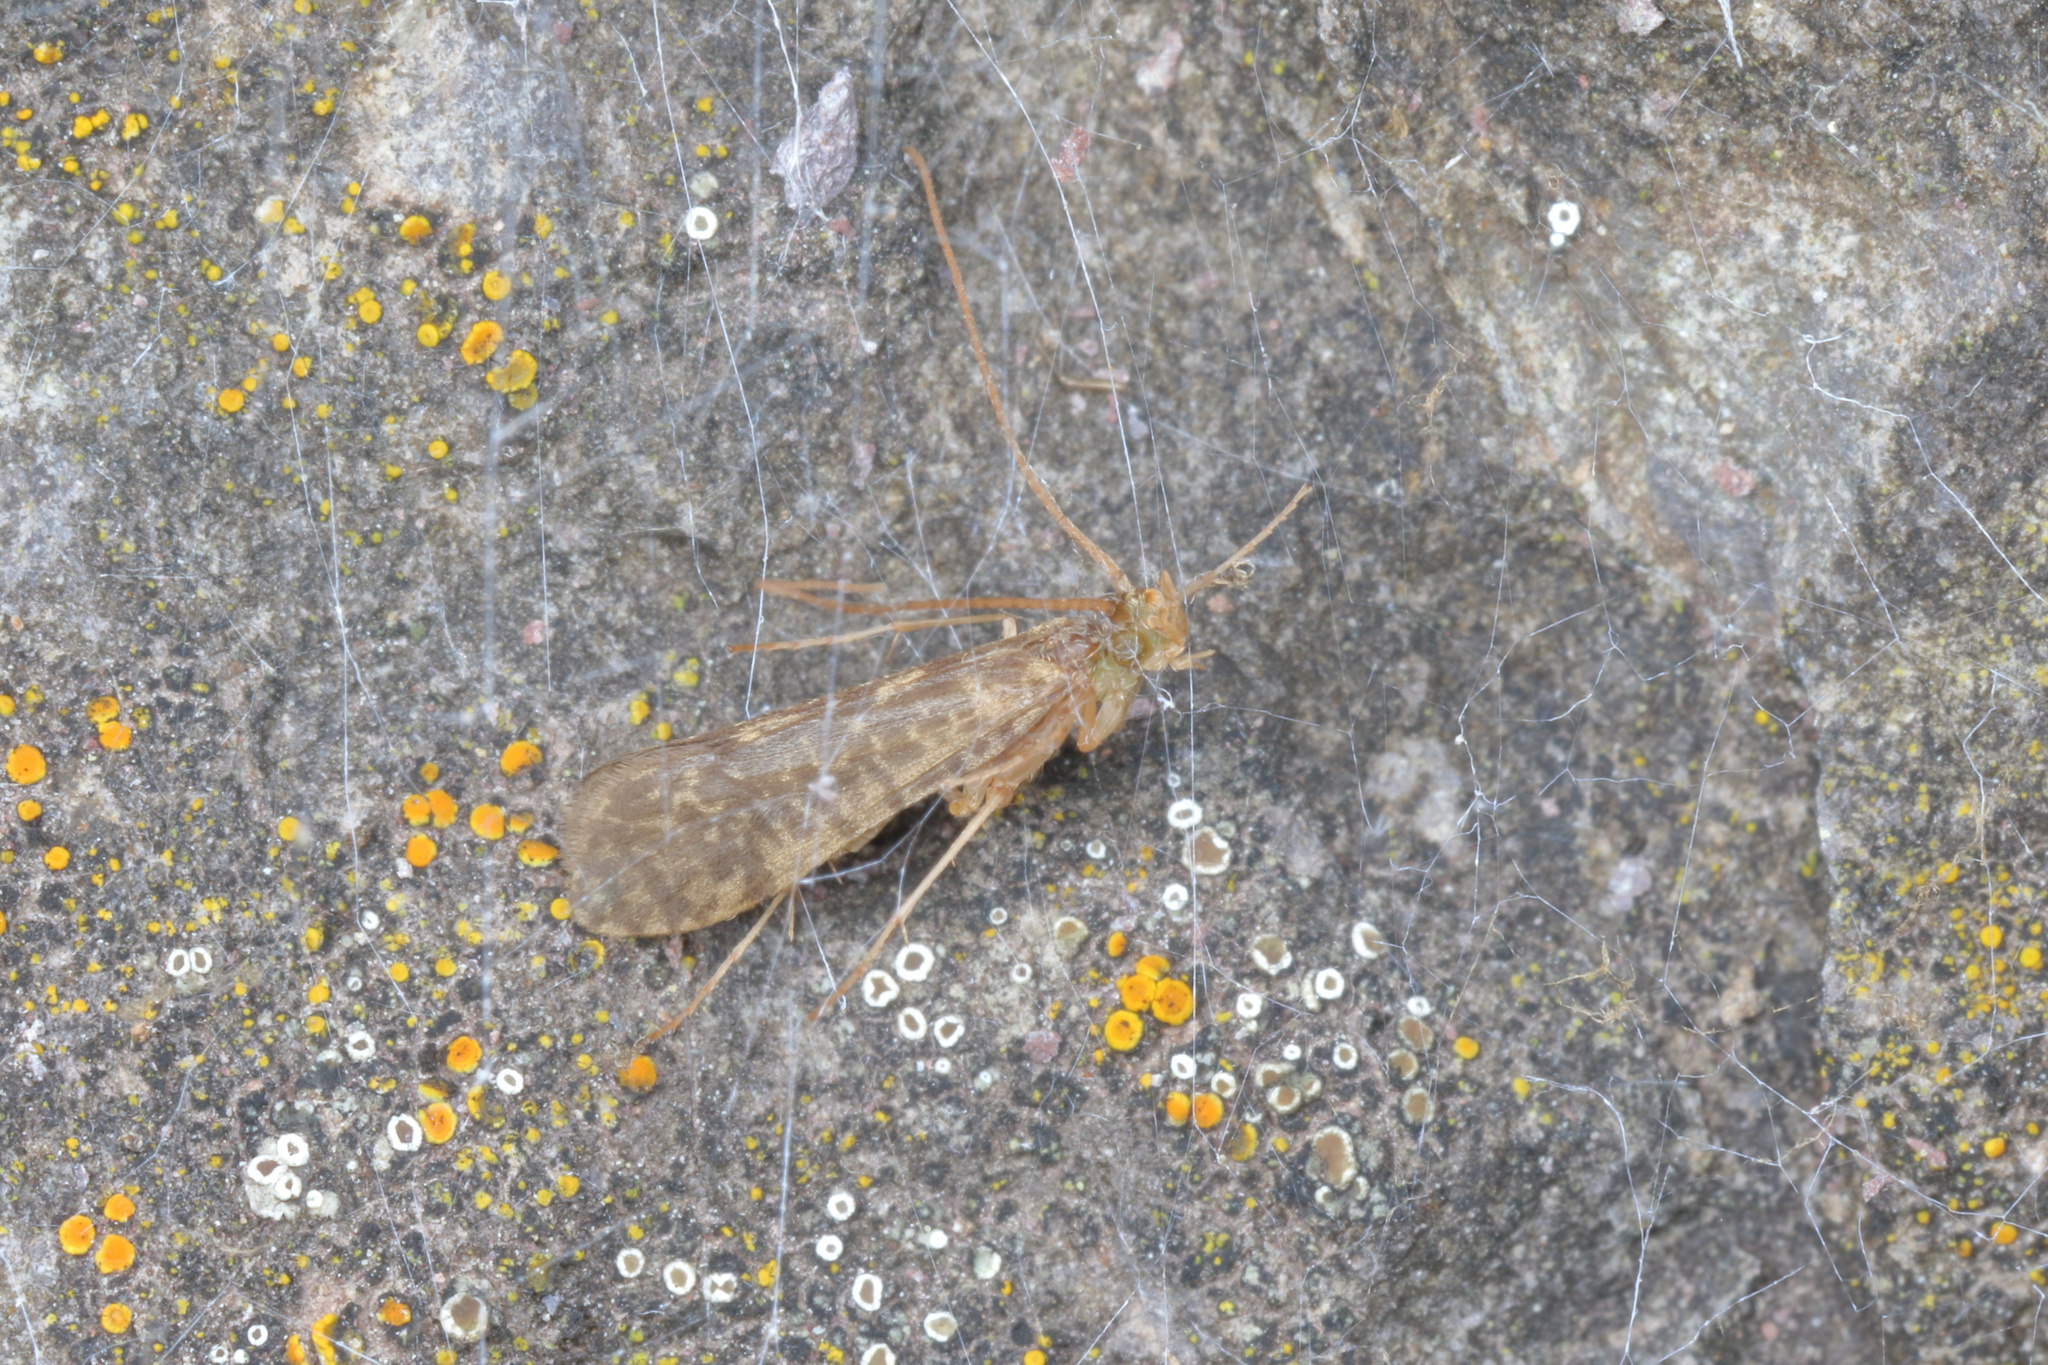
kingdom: Animalia
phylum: Arthropoda
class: Insecta
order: Trichoptera
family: Chathamiidae
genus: Philanisus
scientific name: Philanisus plebeius
